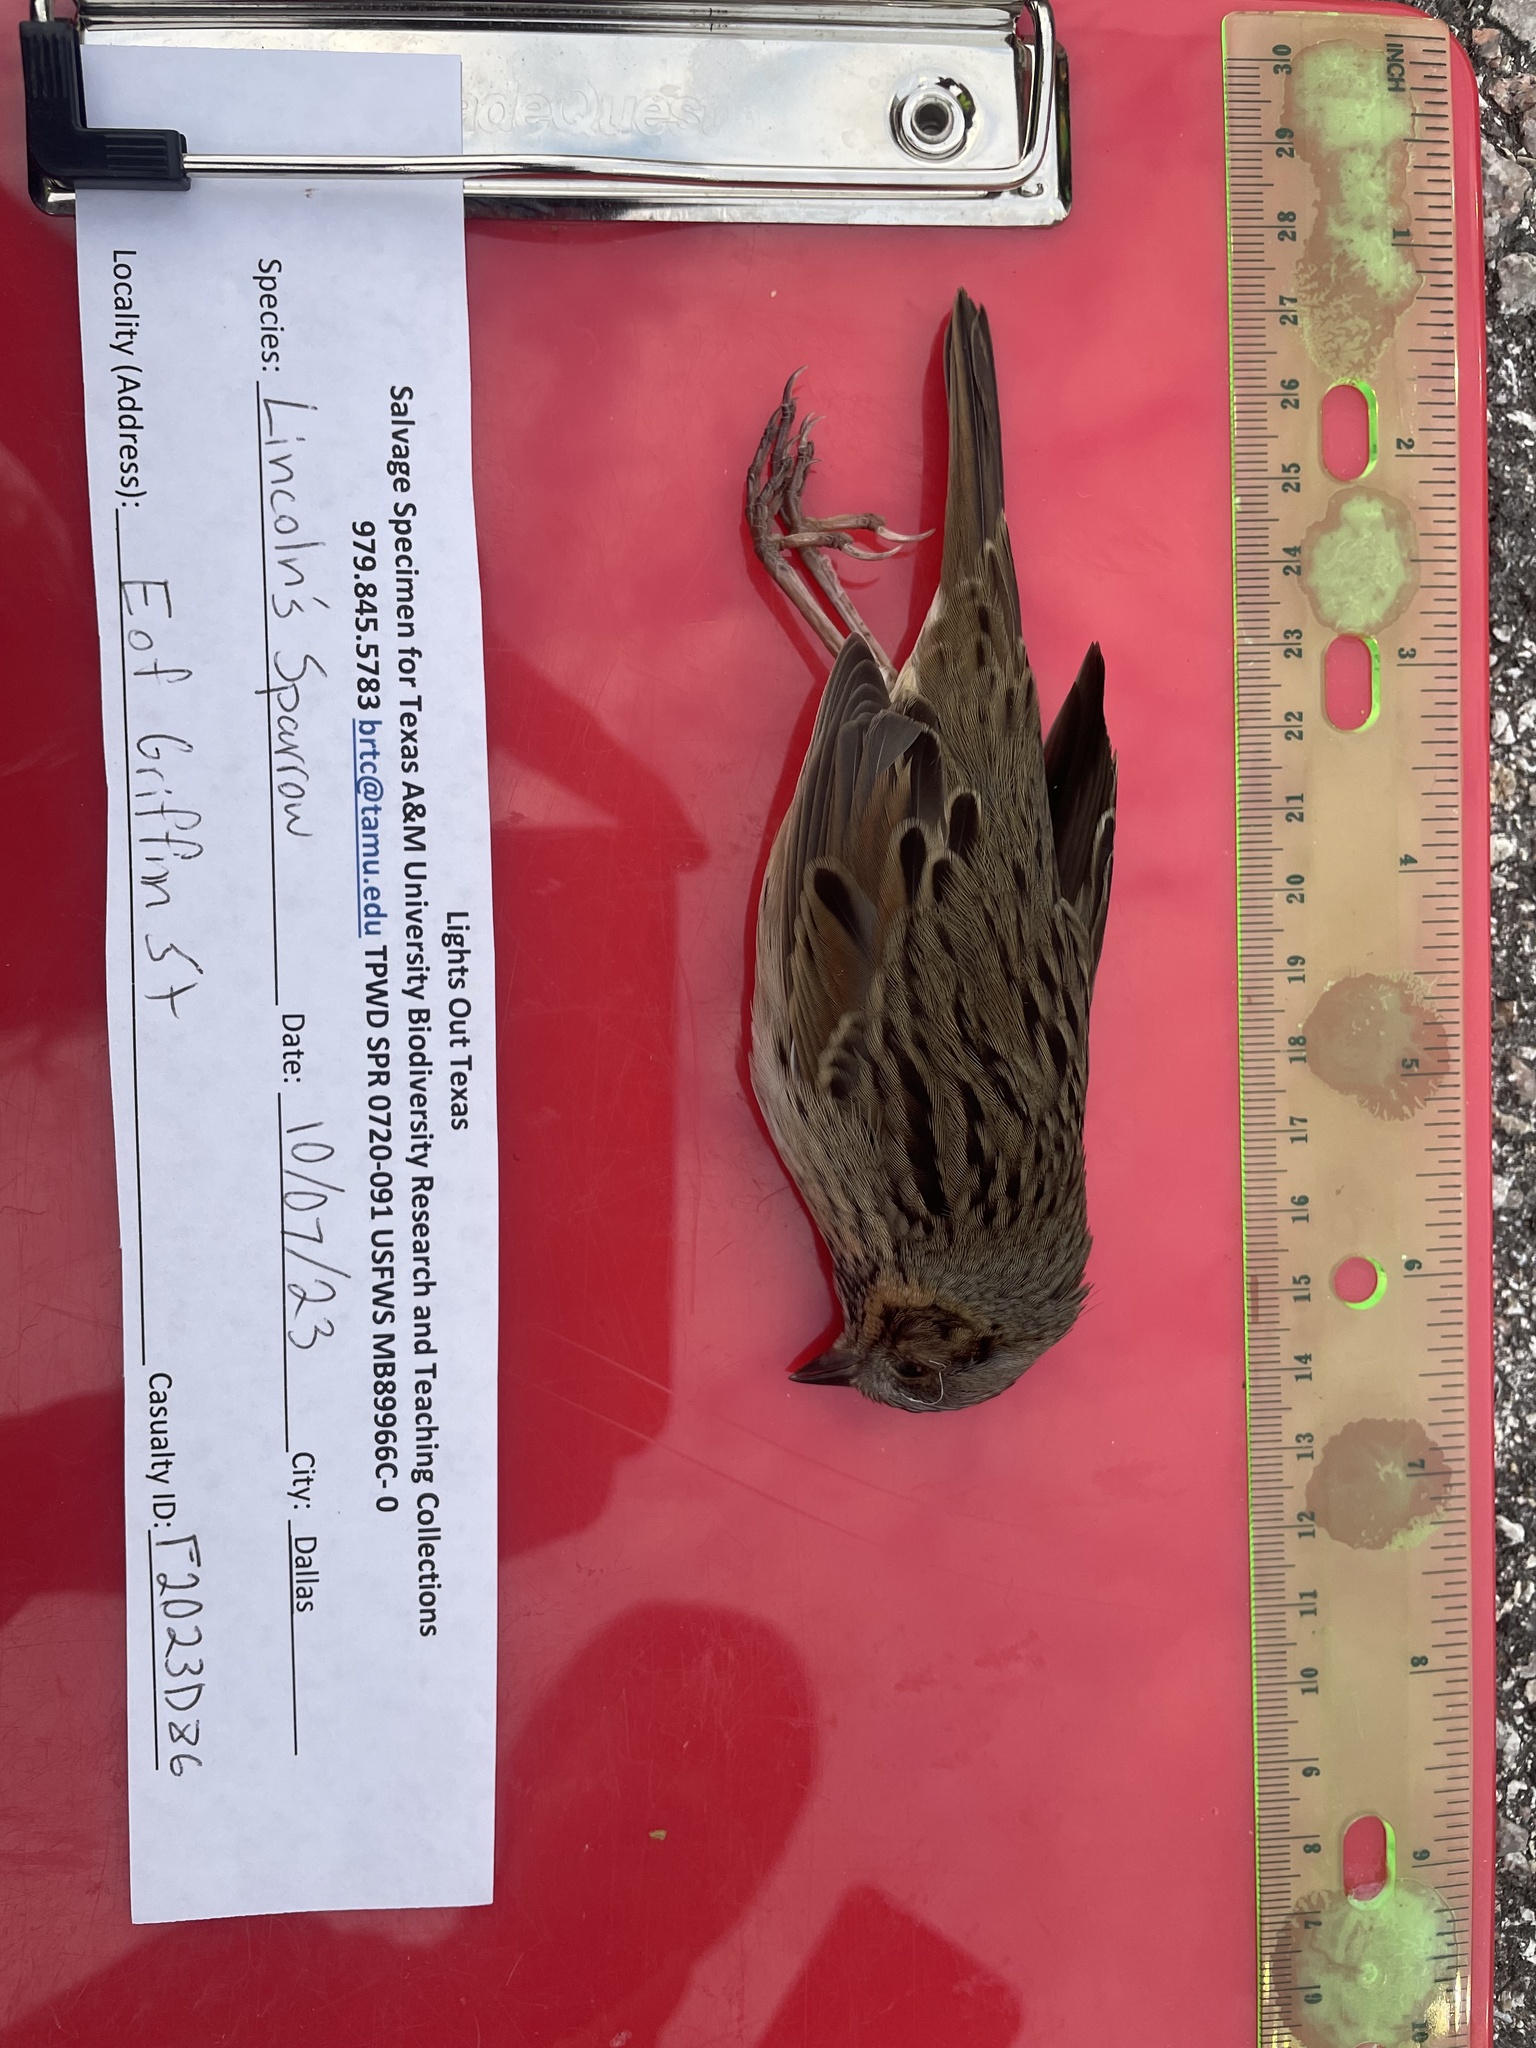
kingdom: Animalia
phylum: Chordata
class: Aves
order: Passeriformes
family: Passerellidae
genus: Melospiza
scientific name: Melospiza lincolnii
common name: Lincoln's sparrow
